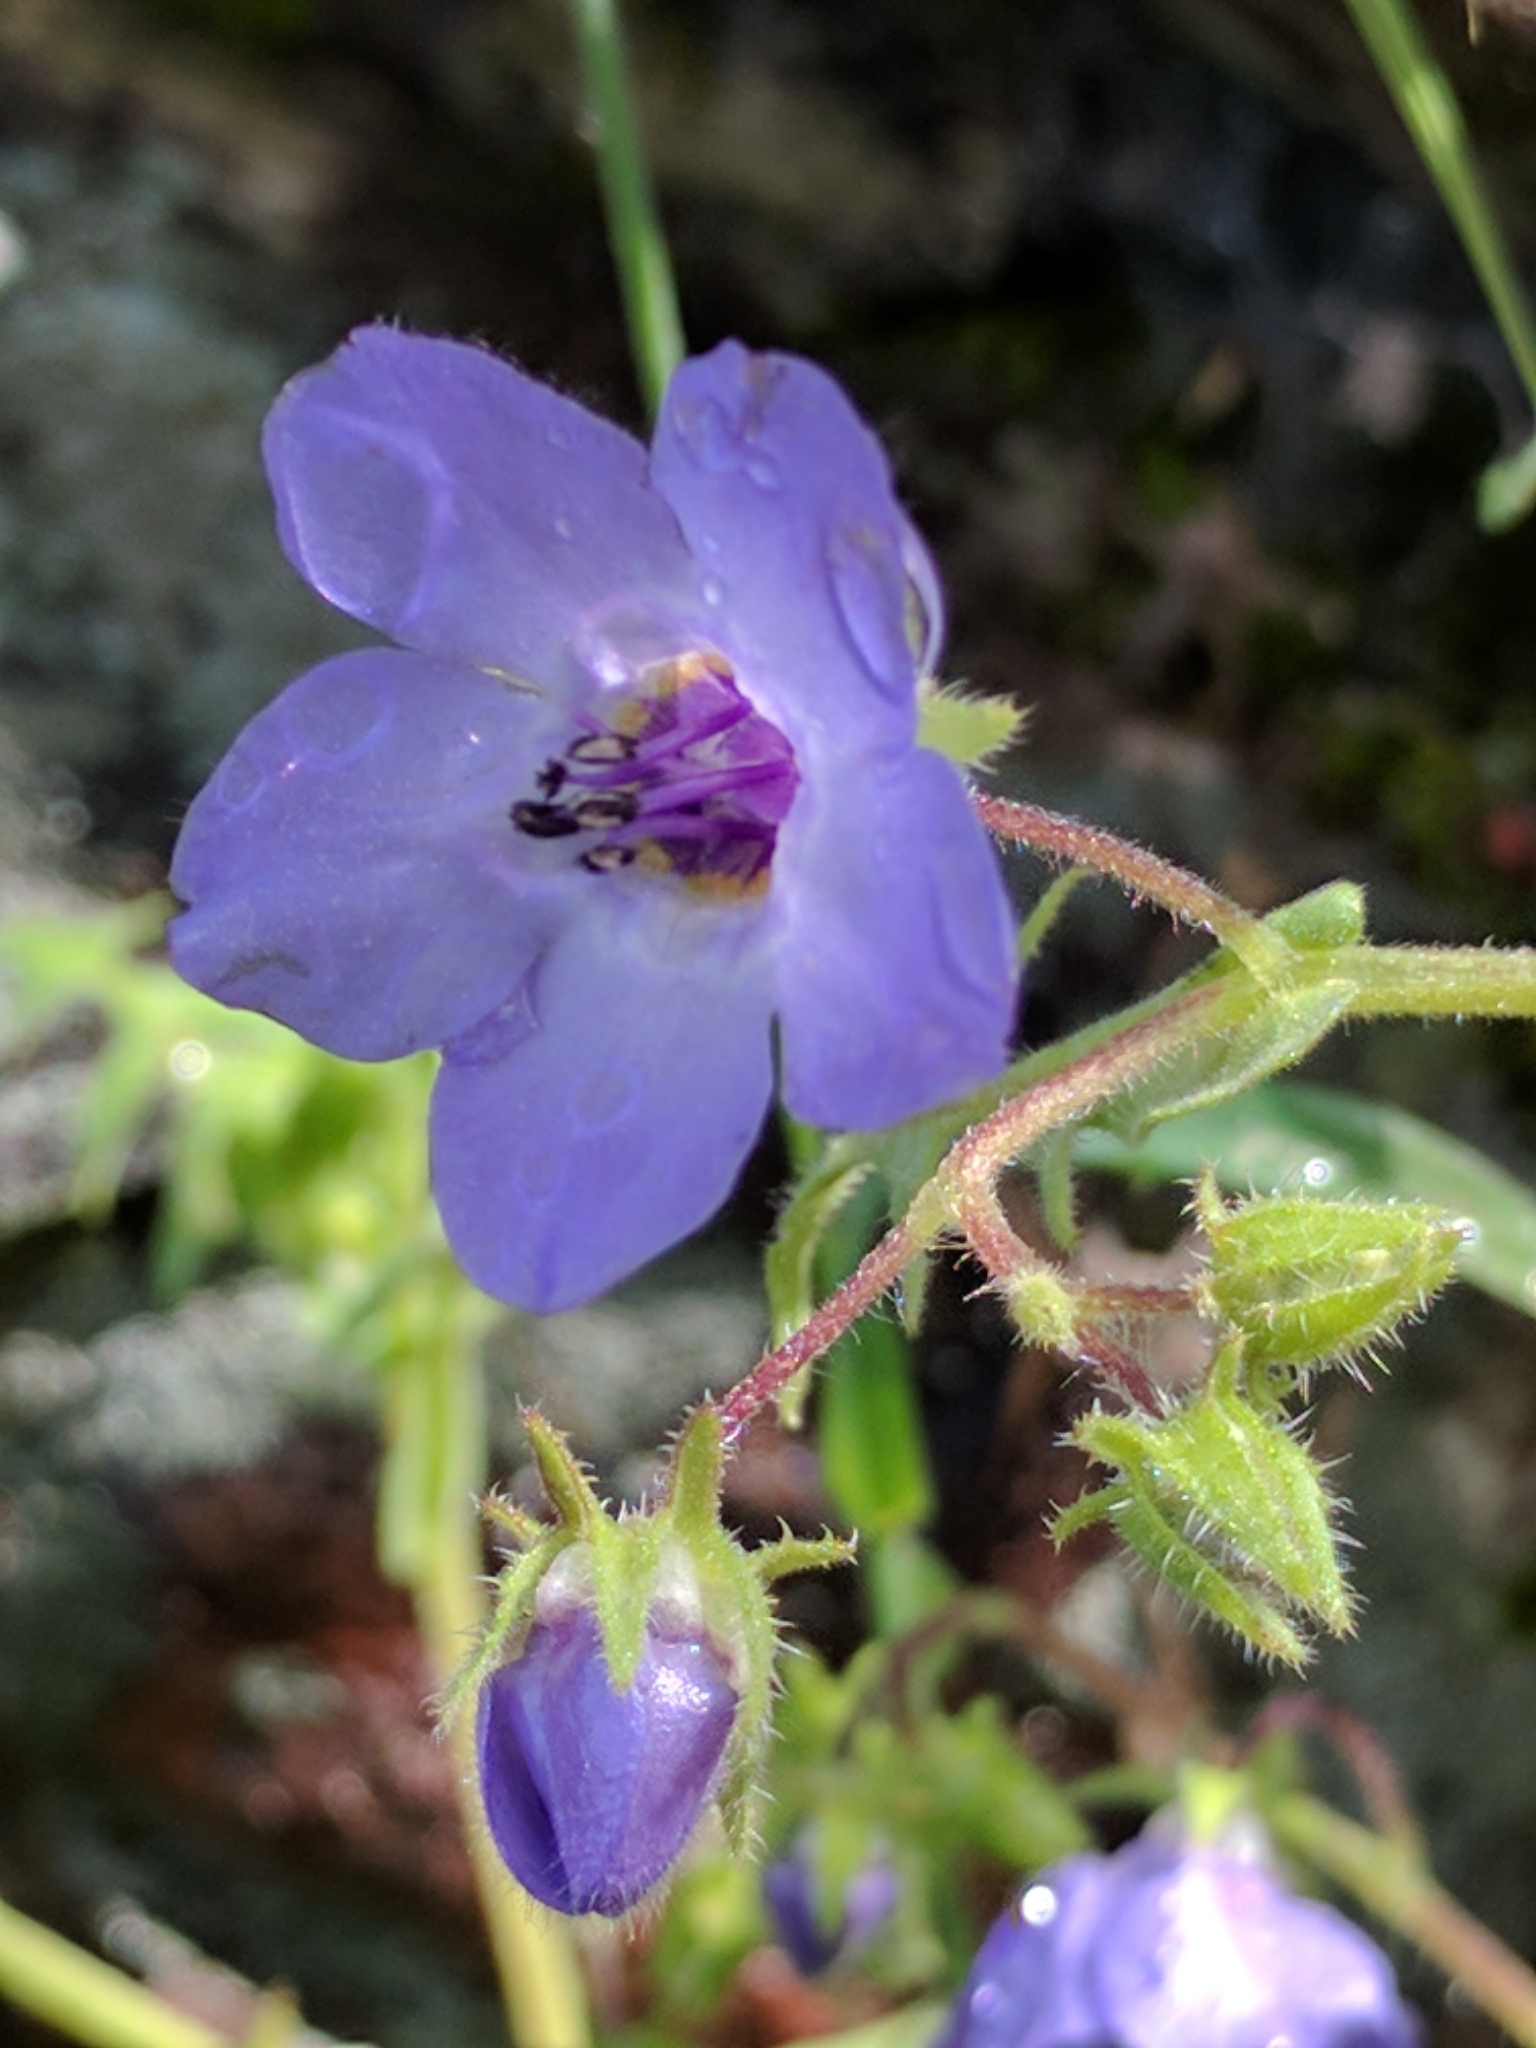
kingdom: Plantae
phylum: Tracheophyta
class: Magnoliopsida
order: Boraginales
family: Hydrophyllaceae
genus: Pholistoma
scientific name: Pholistoma auritum
